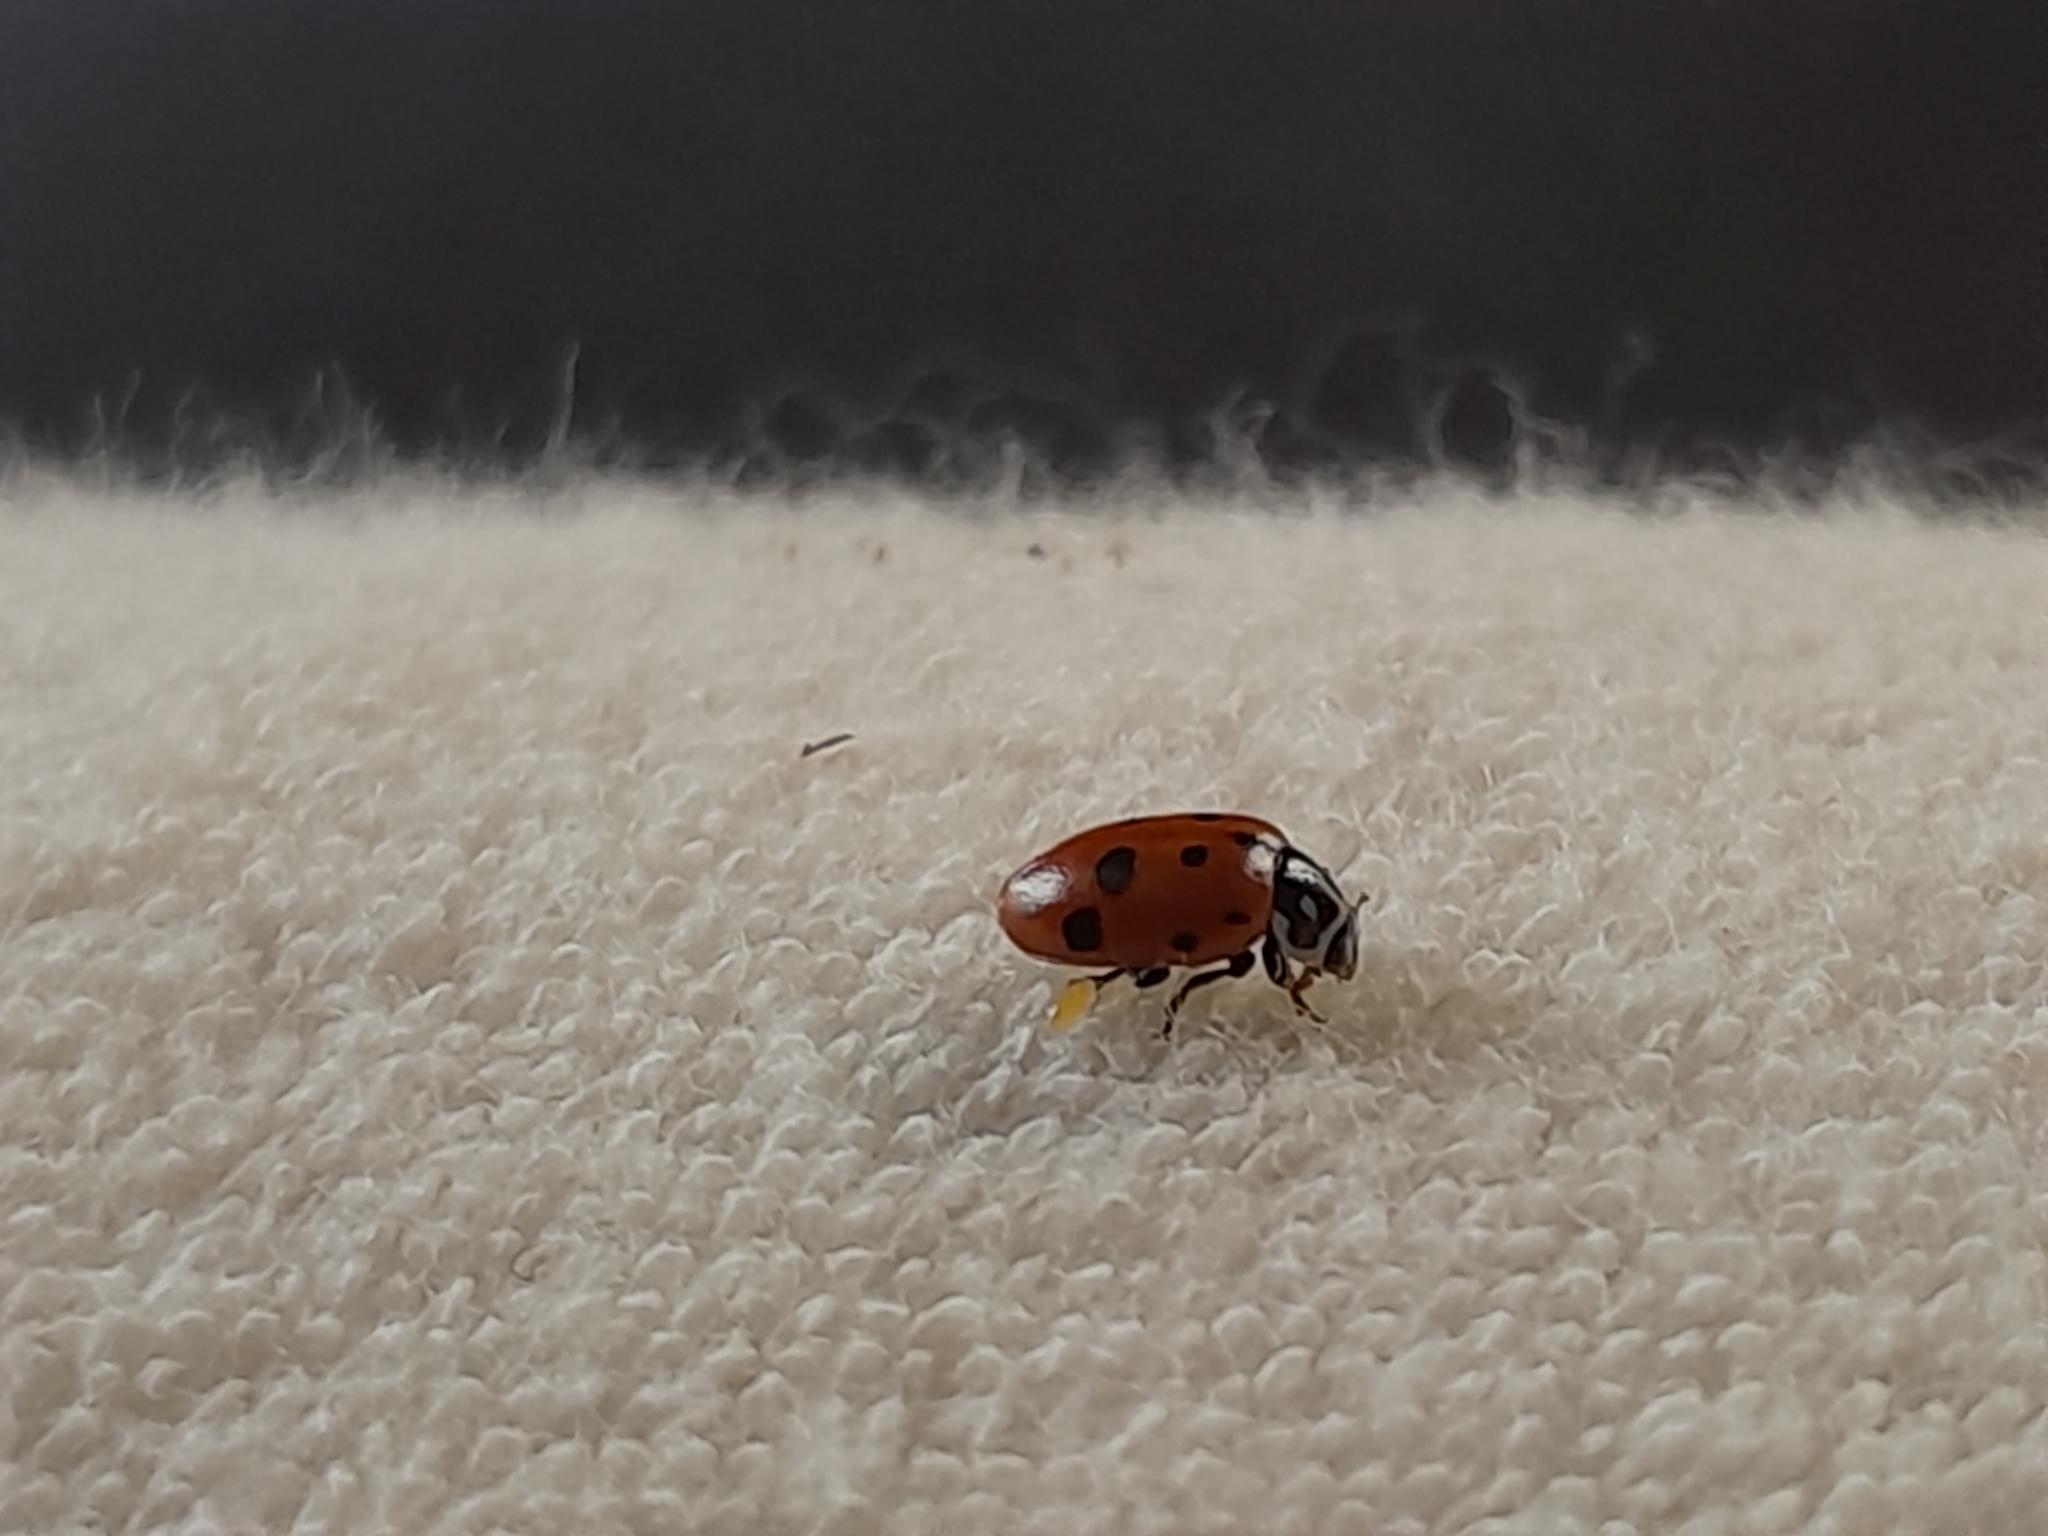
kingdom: Animalia
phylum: Arthropoda
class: Insecta
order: Coleoptera
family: Coccinellidae
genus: Hippodamia
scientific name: Hippodamia variegata
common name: Ladybird beetle
